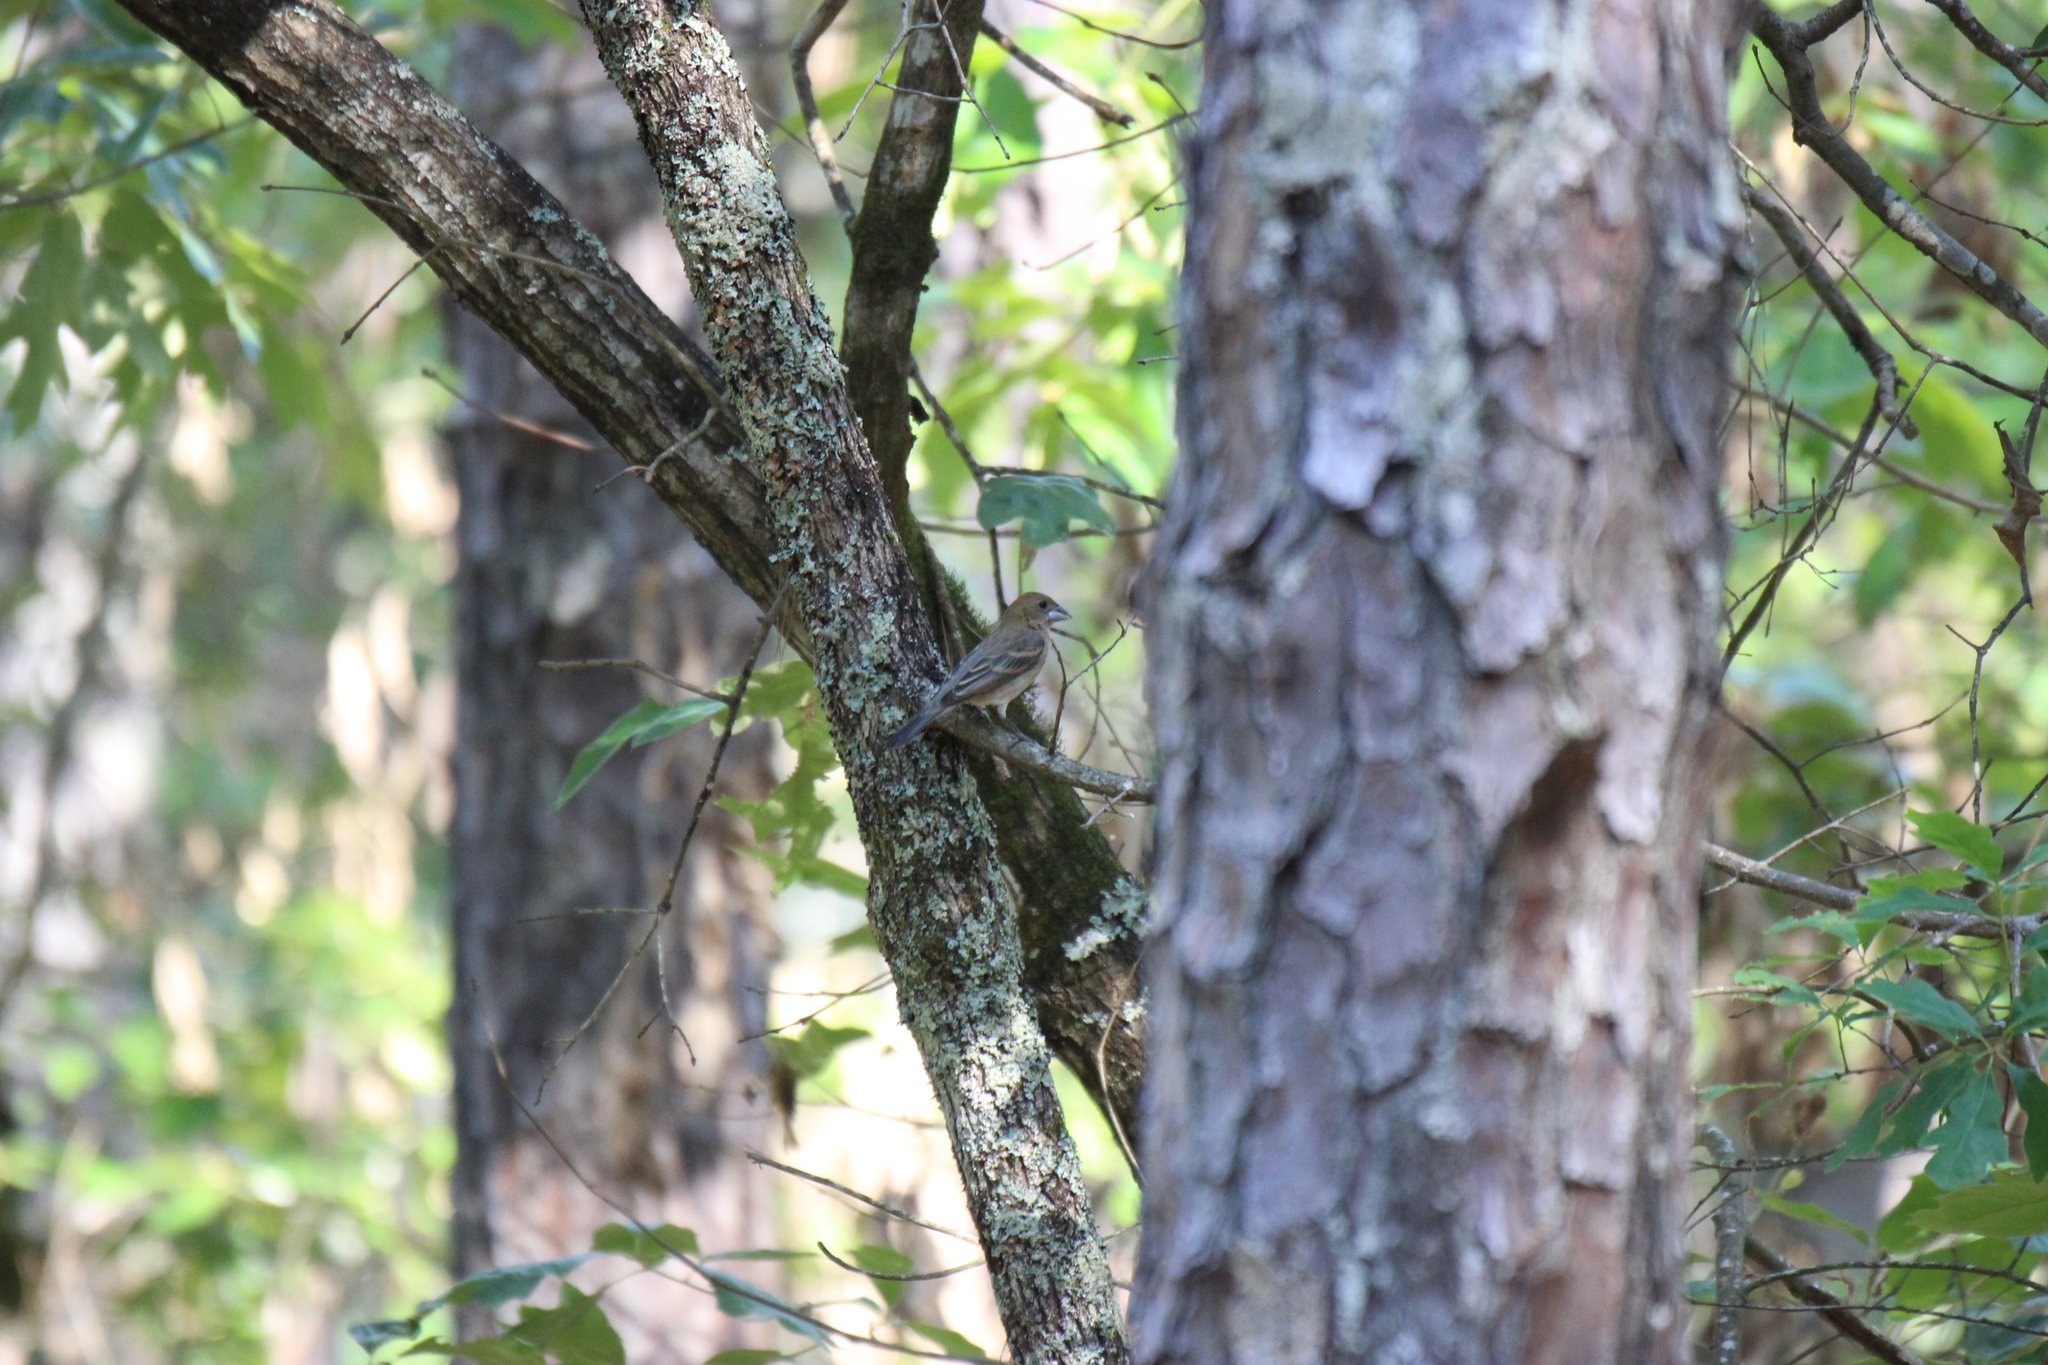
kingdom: Animalia
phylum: Chordata
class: Aves
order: Passeriformes
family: Cardinalidae
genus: Passerina
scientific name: Passerina caerulea
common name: Blue grosbeak
